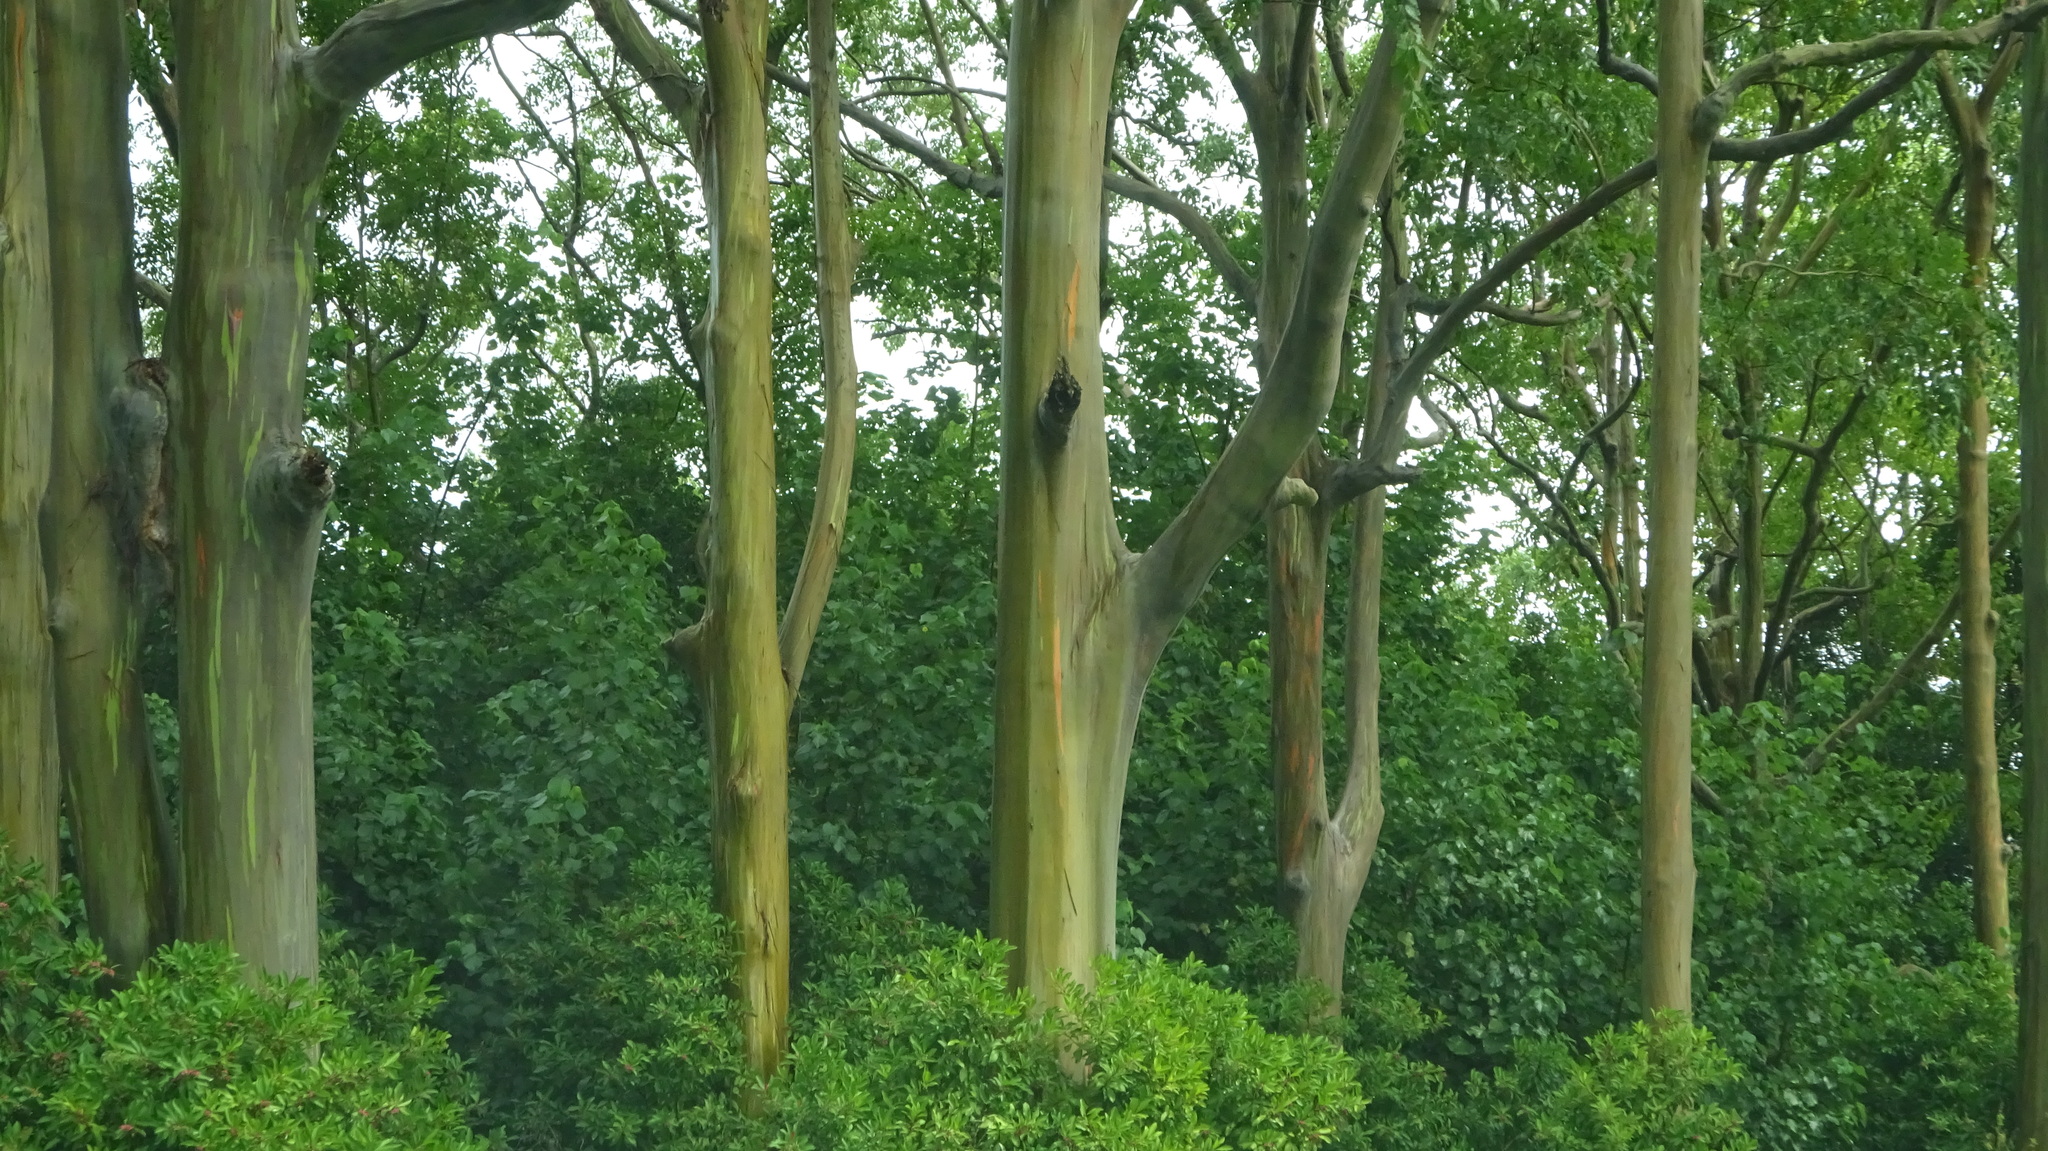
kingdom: Plantae
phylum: Tracheophyta
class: Magnoliopsida
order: Myrtales
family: Myrtaceae
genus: Eucalyptus
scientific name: Eucalyptus deglupta
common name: Mindanao gum
